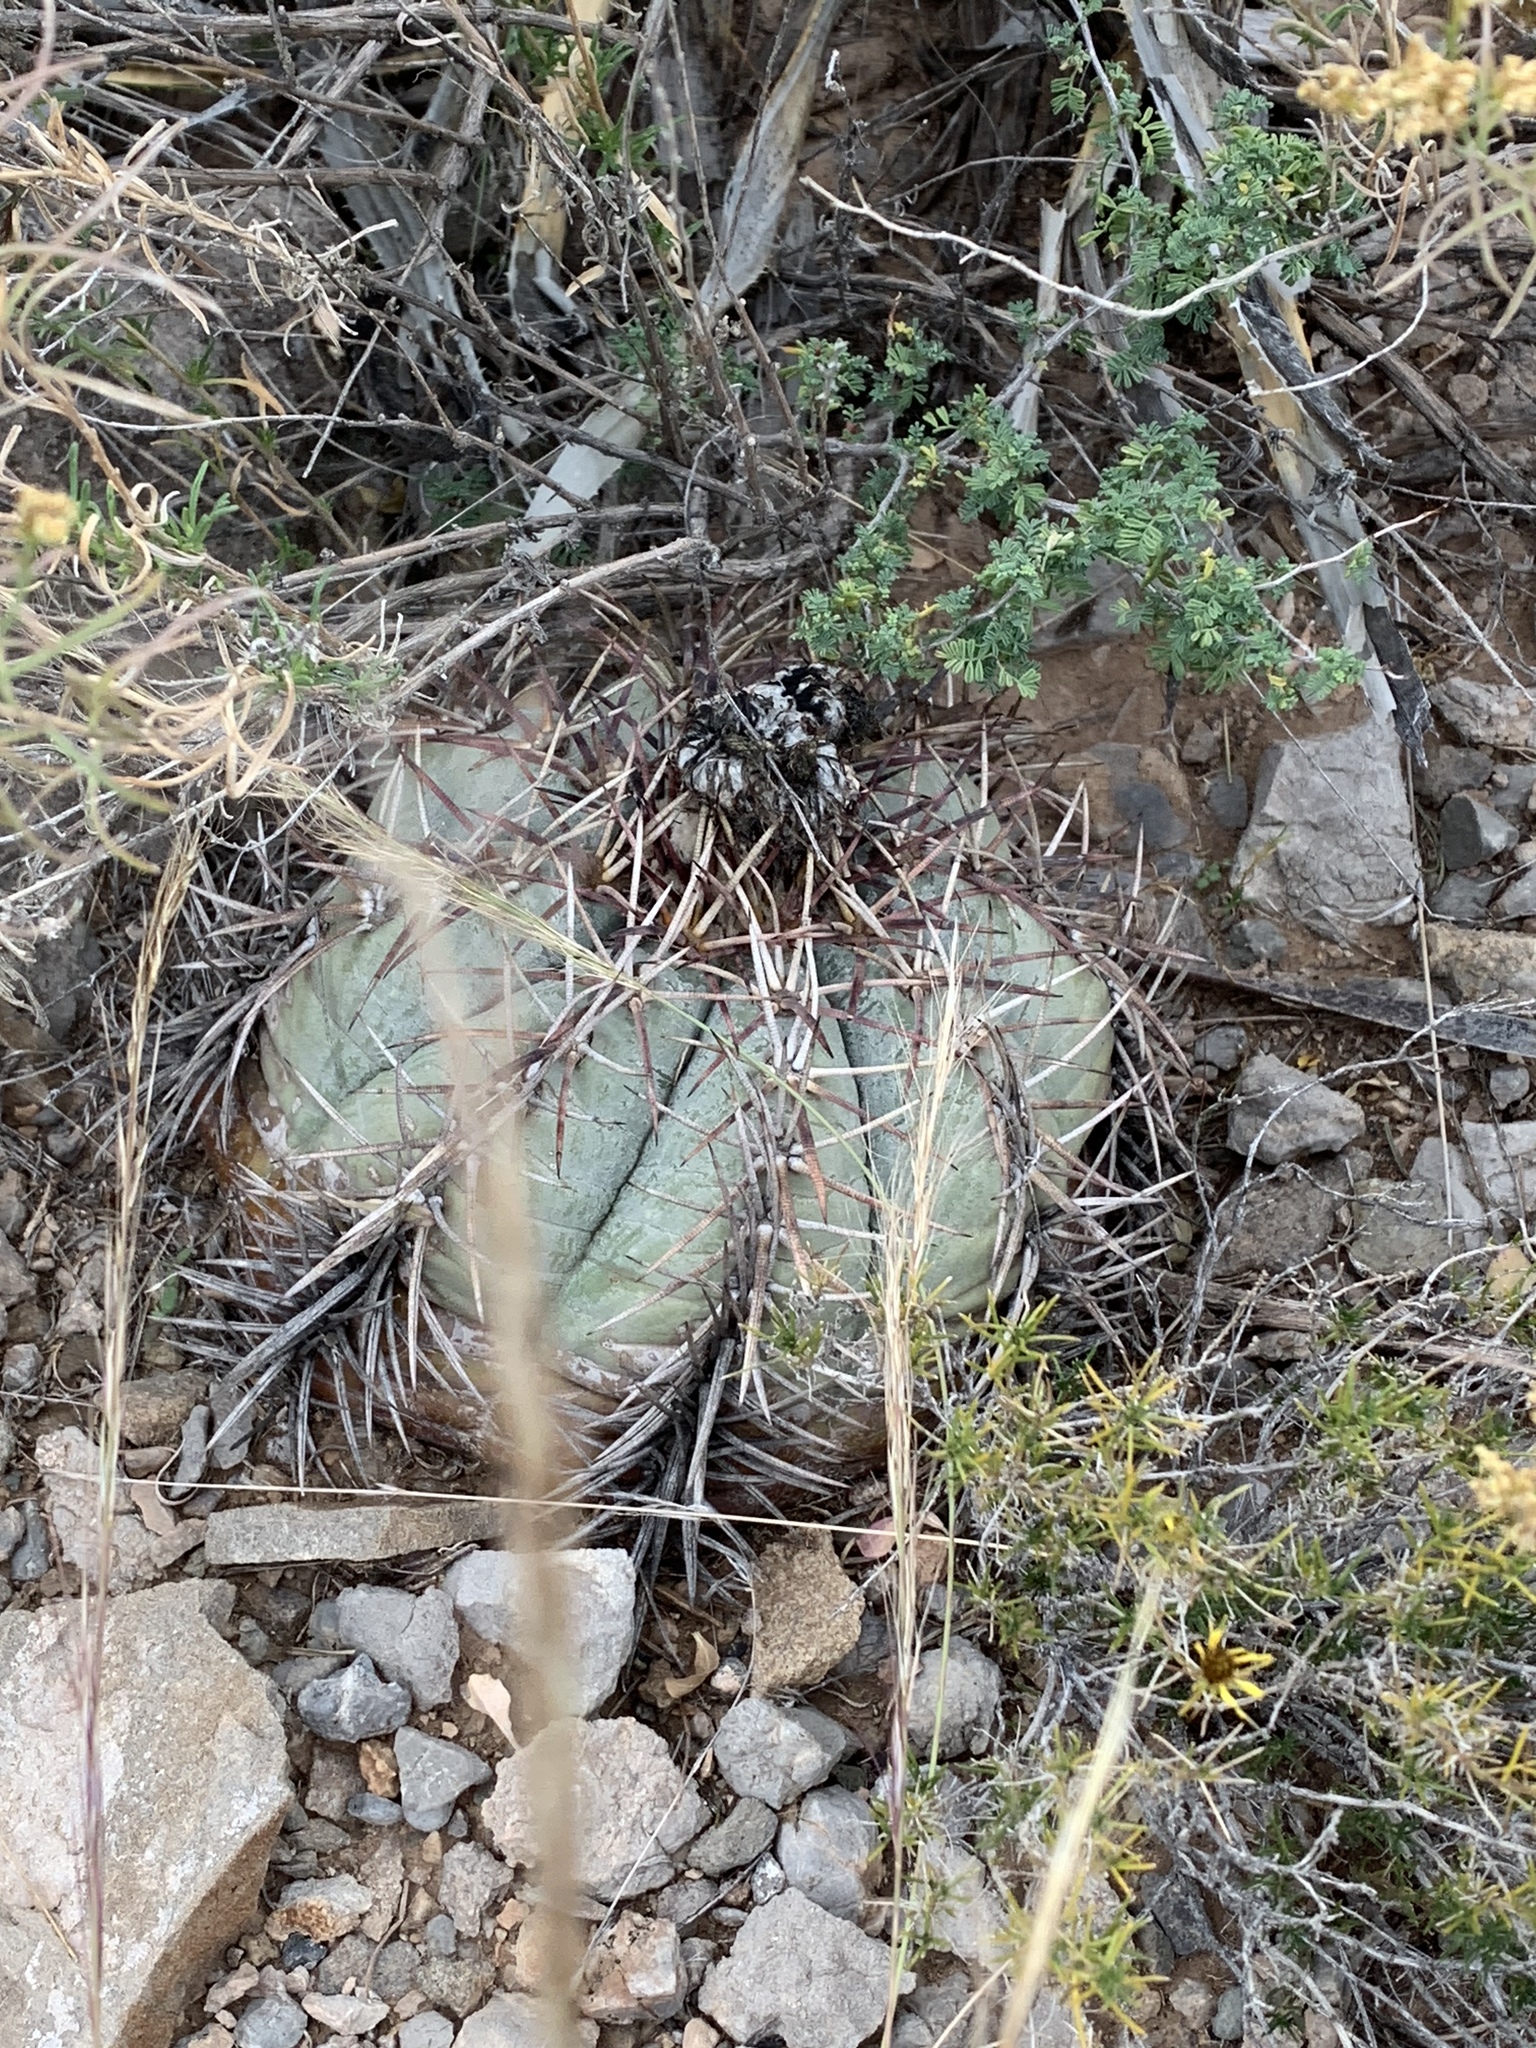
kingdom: Plantae
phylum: Tracheophyta
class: Magnoliopsida
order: Caryophyllales
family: Cactaceae
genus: Echinocactus
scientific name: Echinocactus horizonthalonius
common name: Devilshead
